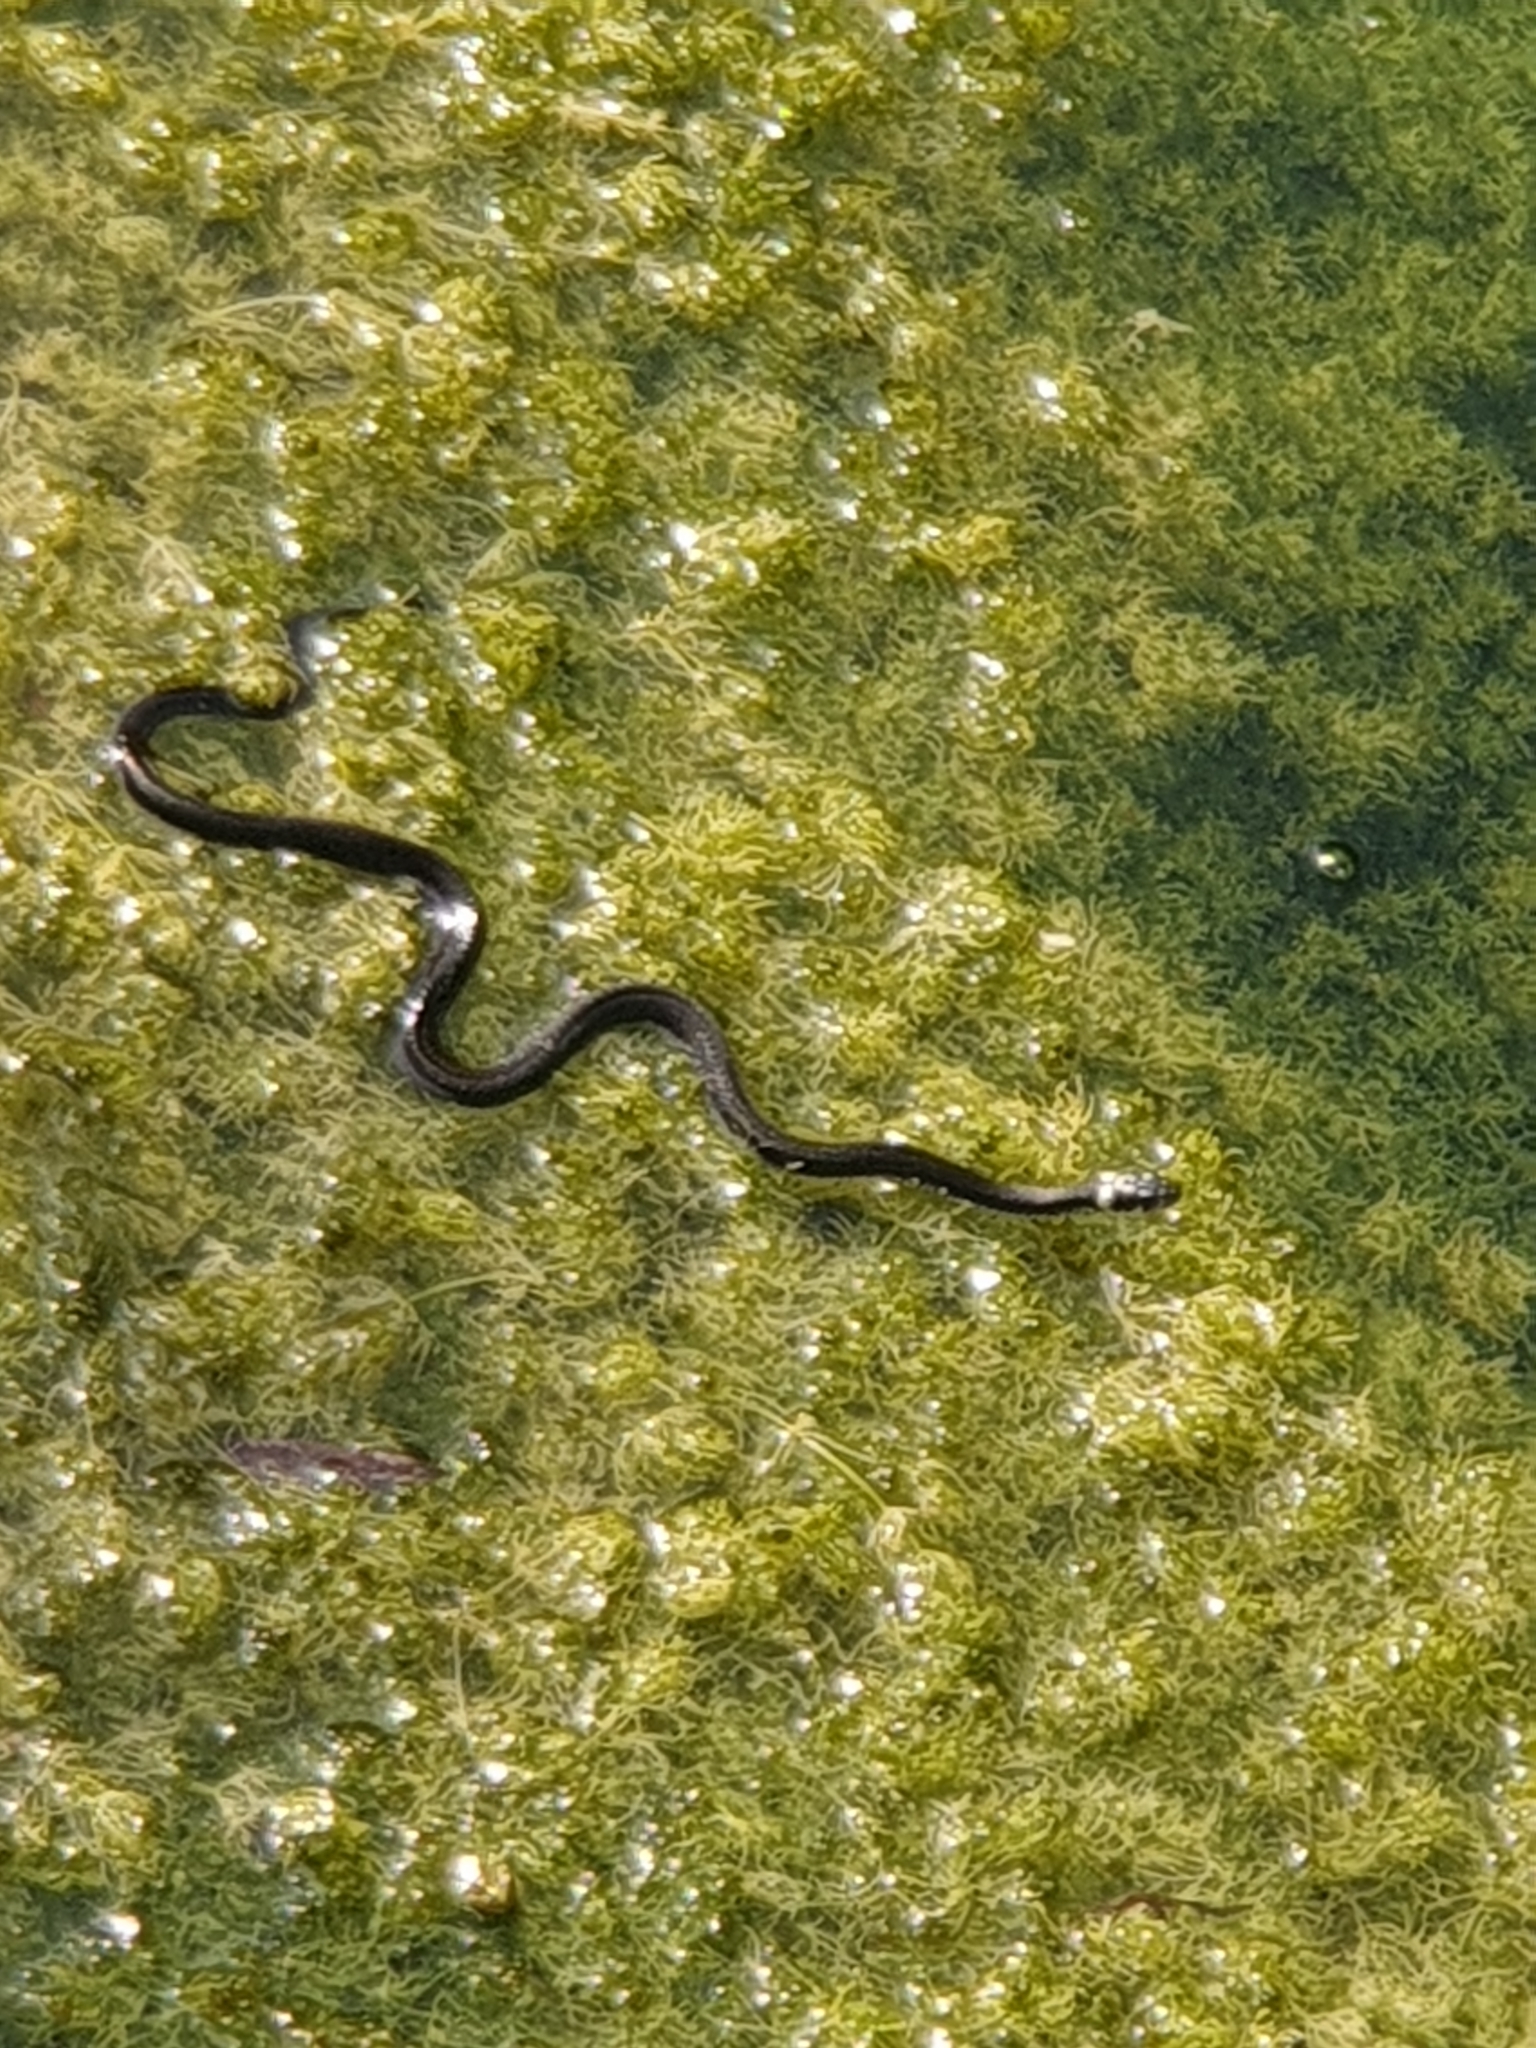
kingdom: Animalia
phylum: Chordata
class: Squamata
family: Colubridae
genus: Natrix
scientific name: Natrix natrix
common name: Grass snake
